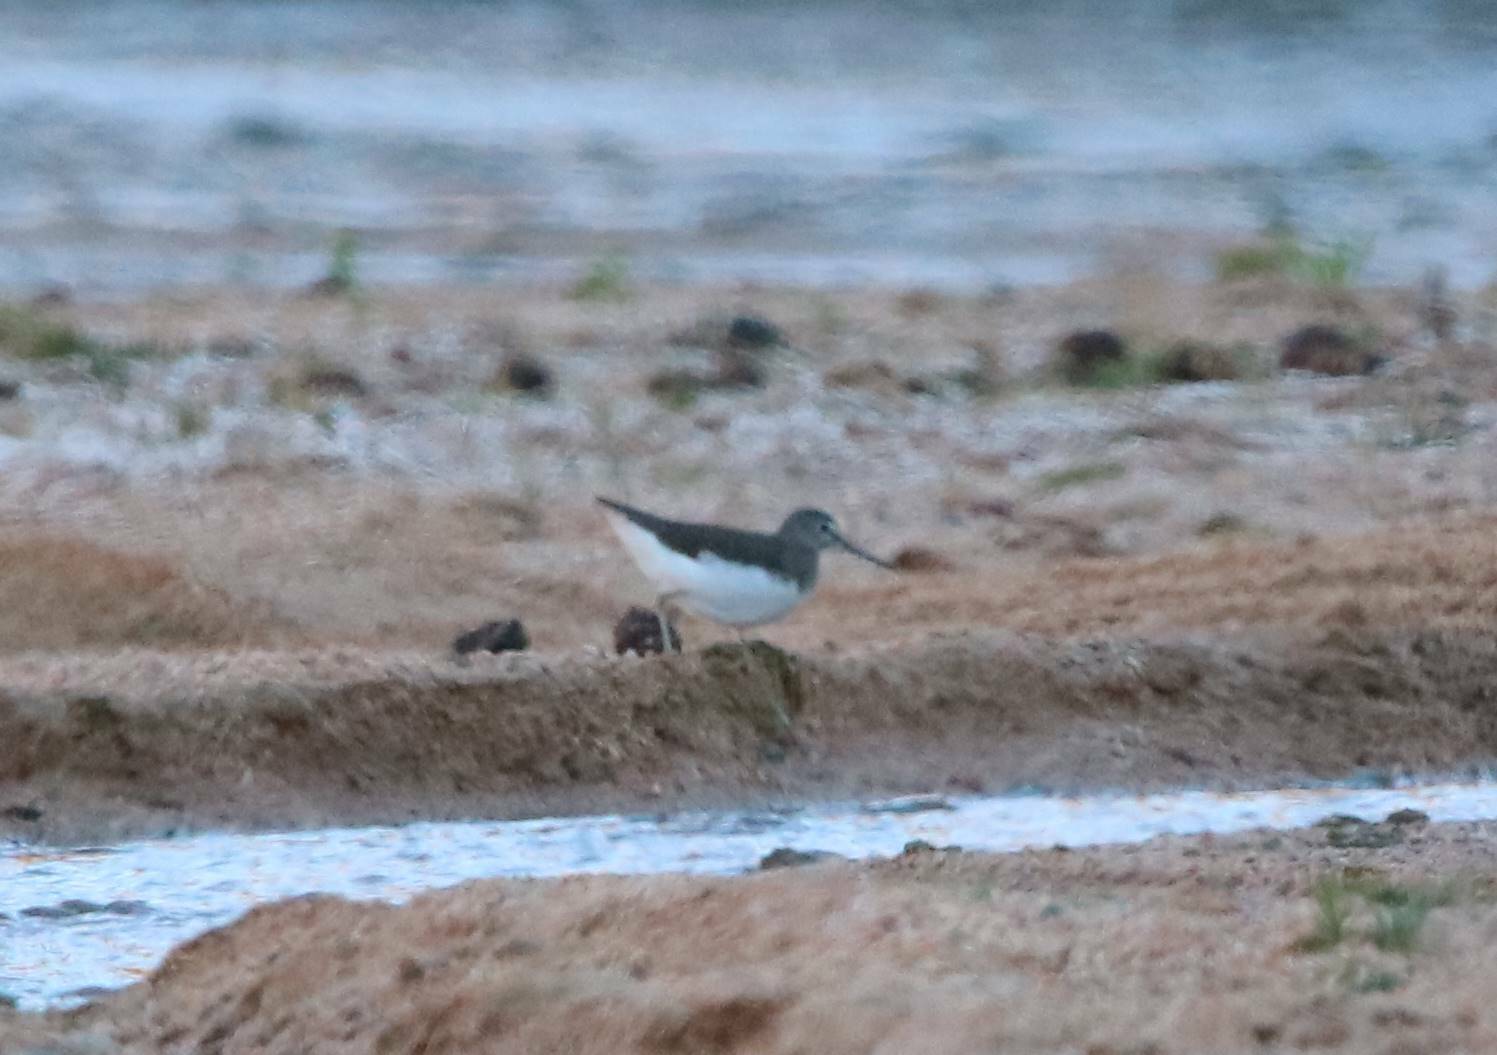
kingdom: Animalia
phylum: Chordata
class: Aves
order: Charadriiformes
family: Scolopacidae
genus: Tringa
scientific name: Tringa ochropus
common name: Green sandpiper
